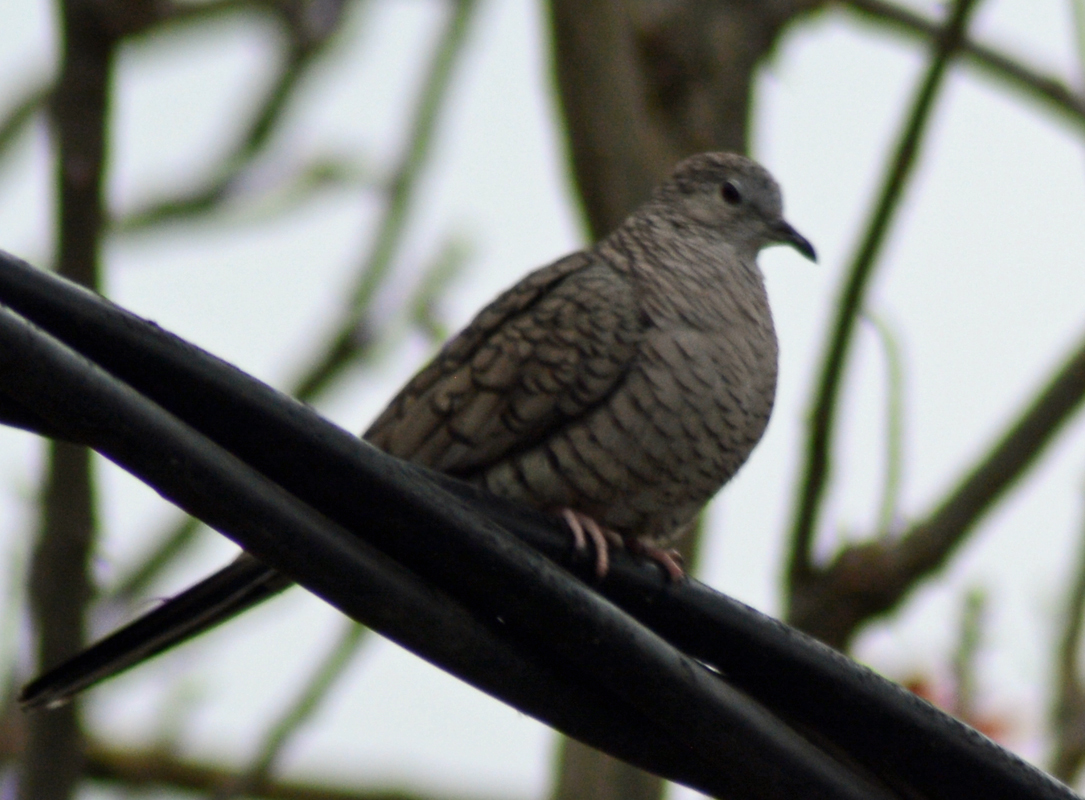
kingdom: Animalia
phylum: Chordata
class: Aves
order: Columbiformes
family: Columbidae
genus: Columbina
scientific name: Columbina inca
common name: Inca dove
